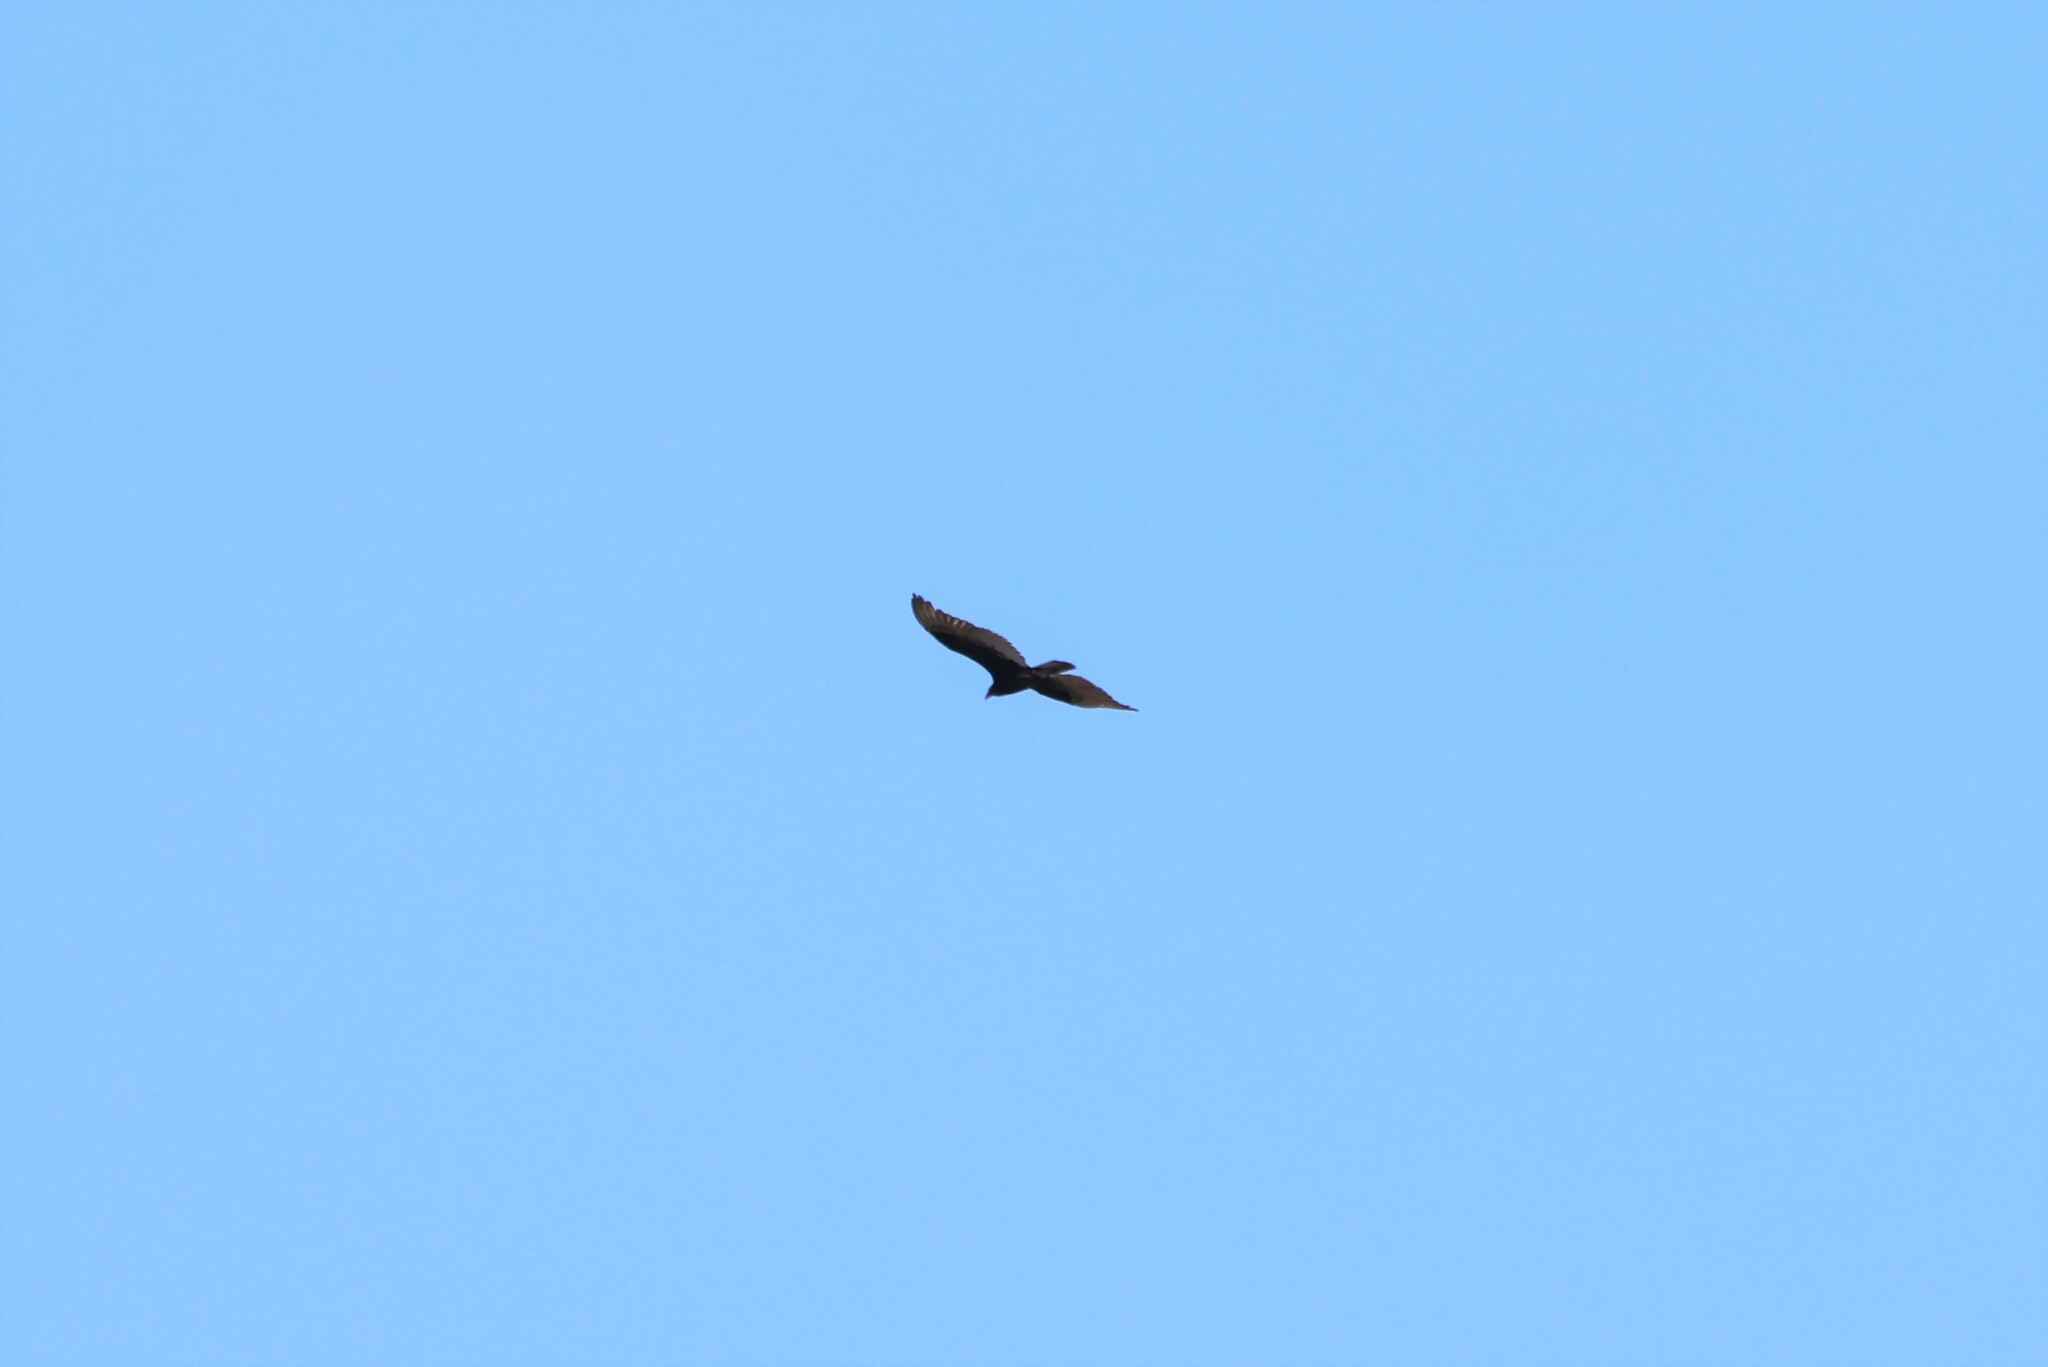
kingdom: Animalia
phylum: Chordata
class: Aves
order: Accipitriformes
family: Cathartidae
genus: Cathartes
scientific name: Cathartes aura
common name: Turkey vulture
